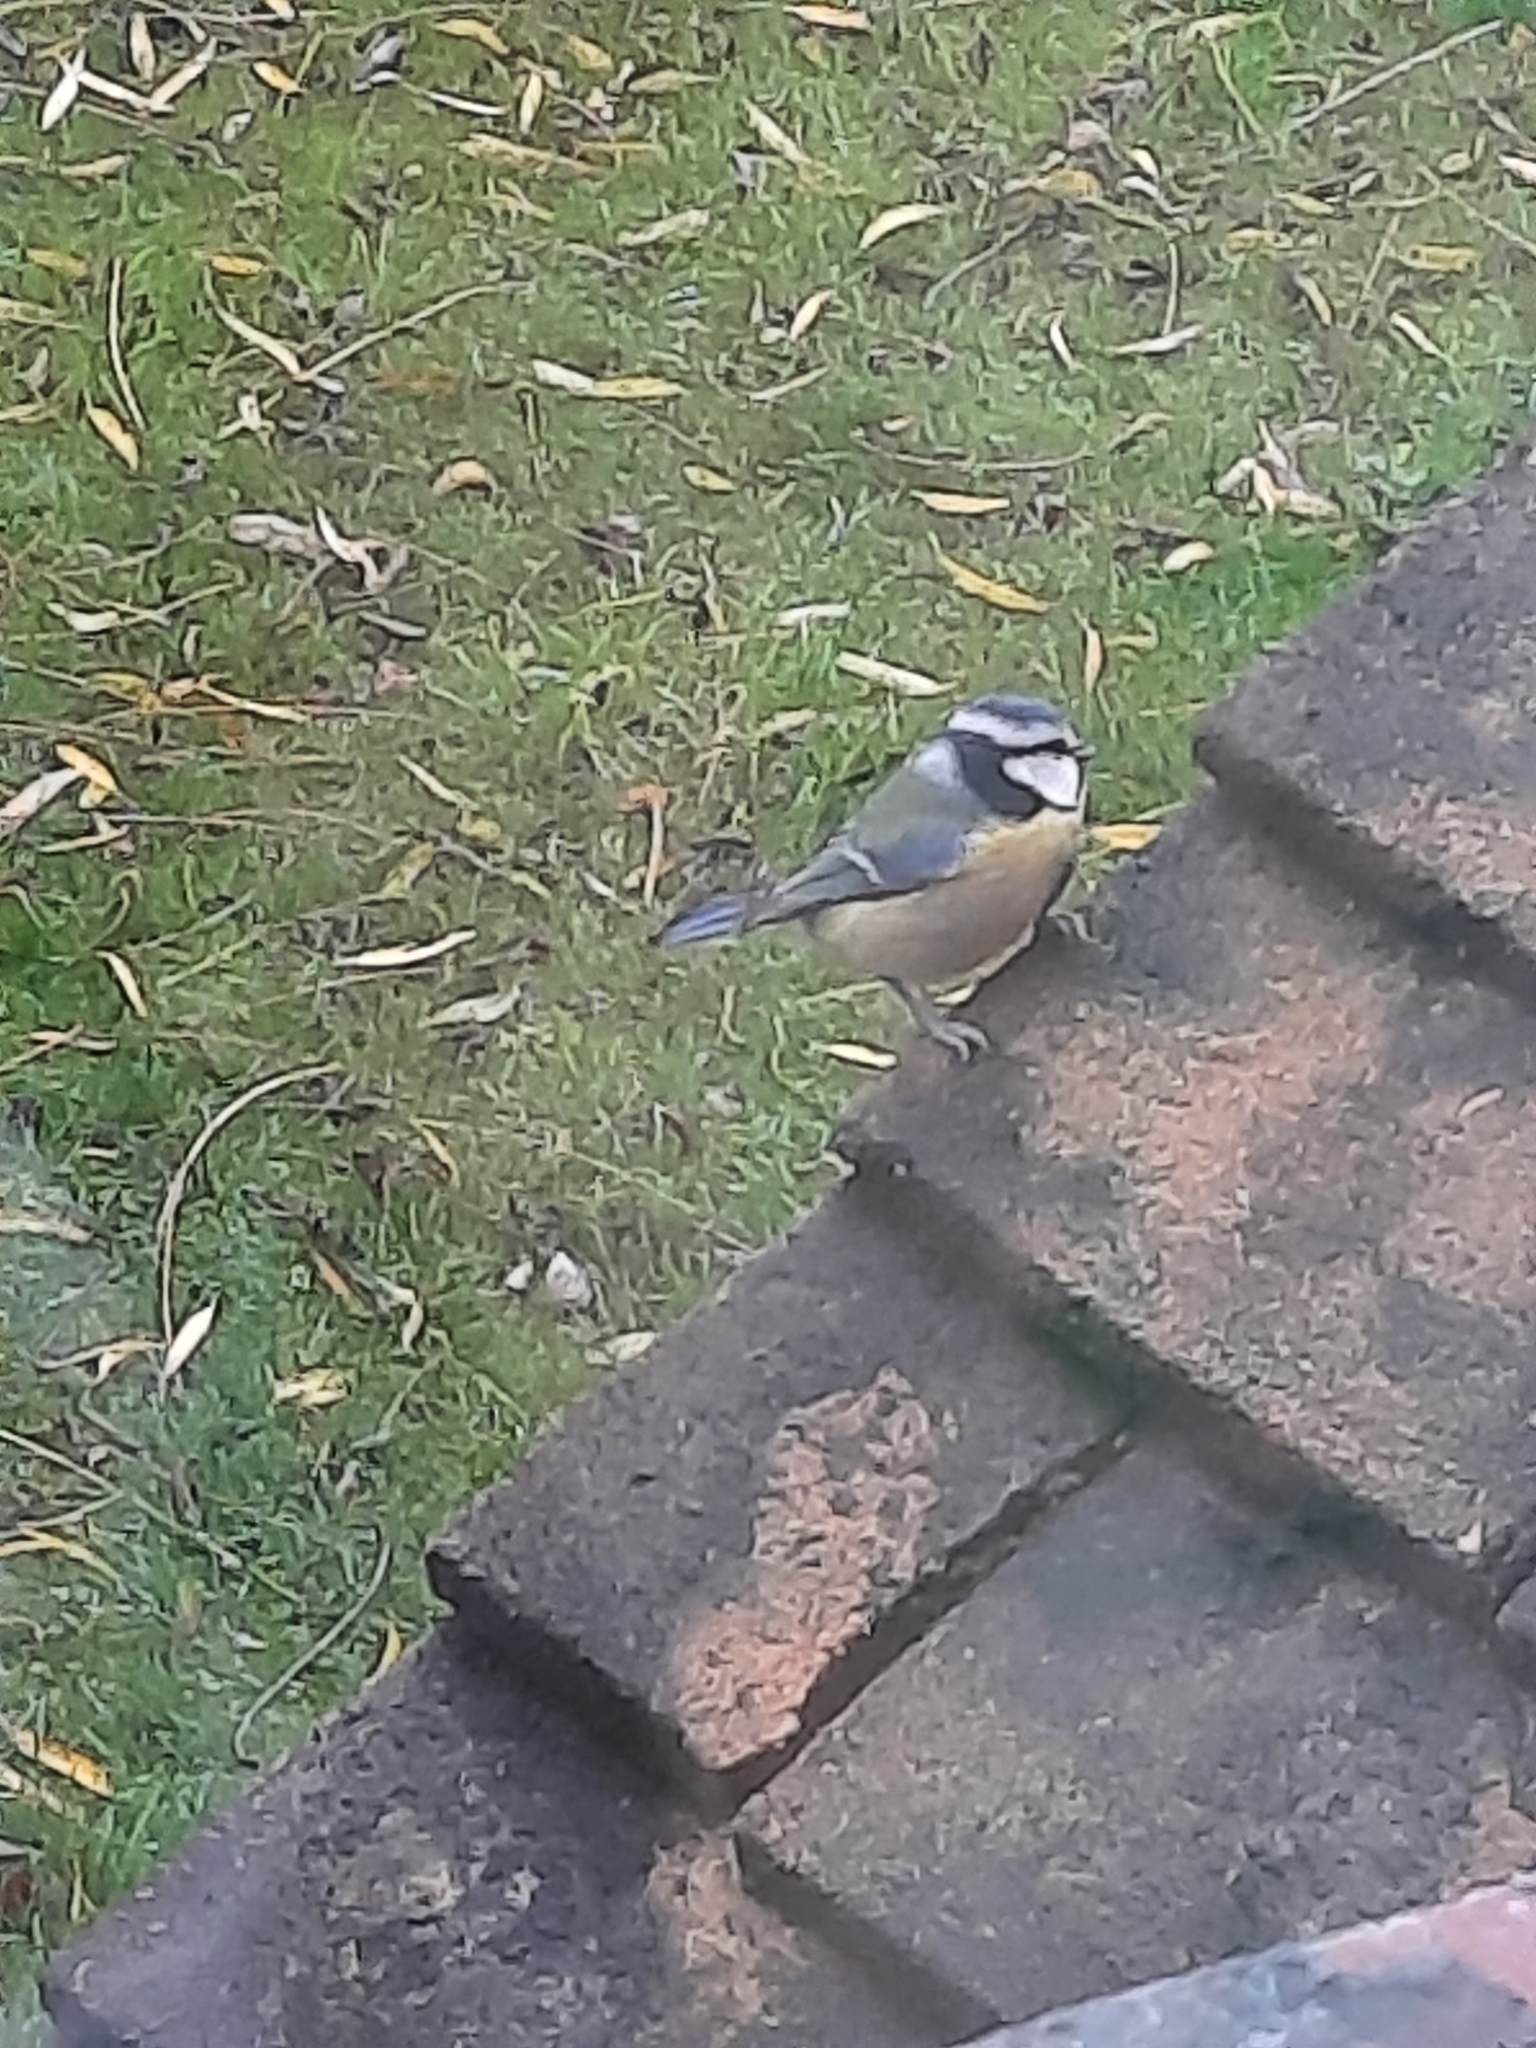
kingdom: Animalia
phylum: Chordata
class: Aves
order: Passeriformes
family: Paridae
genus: Cyanistes
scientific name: Cyanistes caeruleus
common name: Eurasian blue tit
